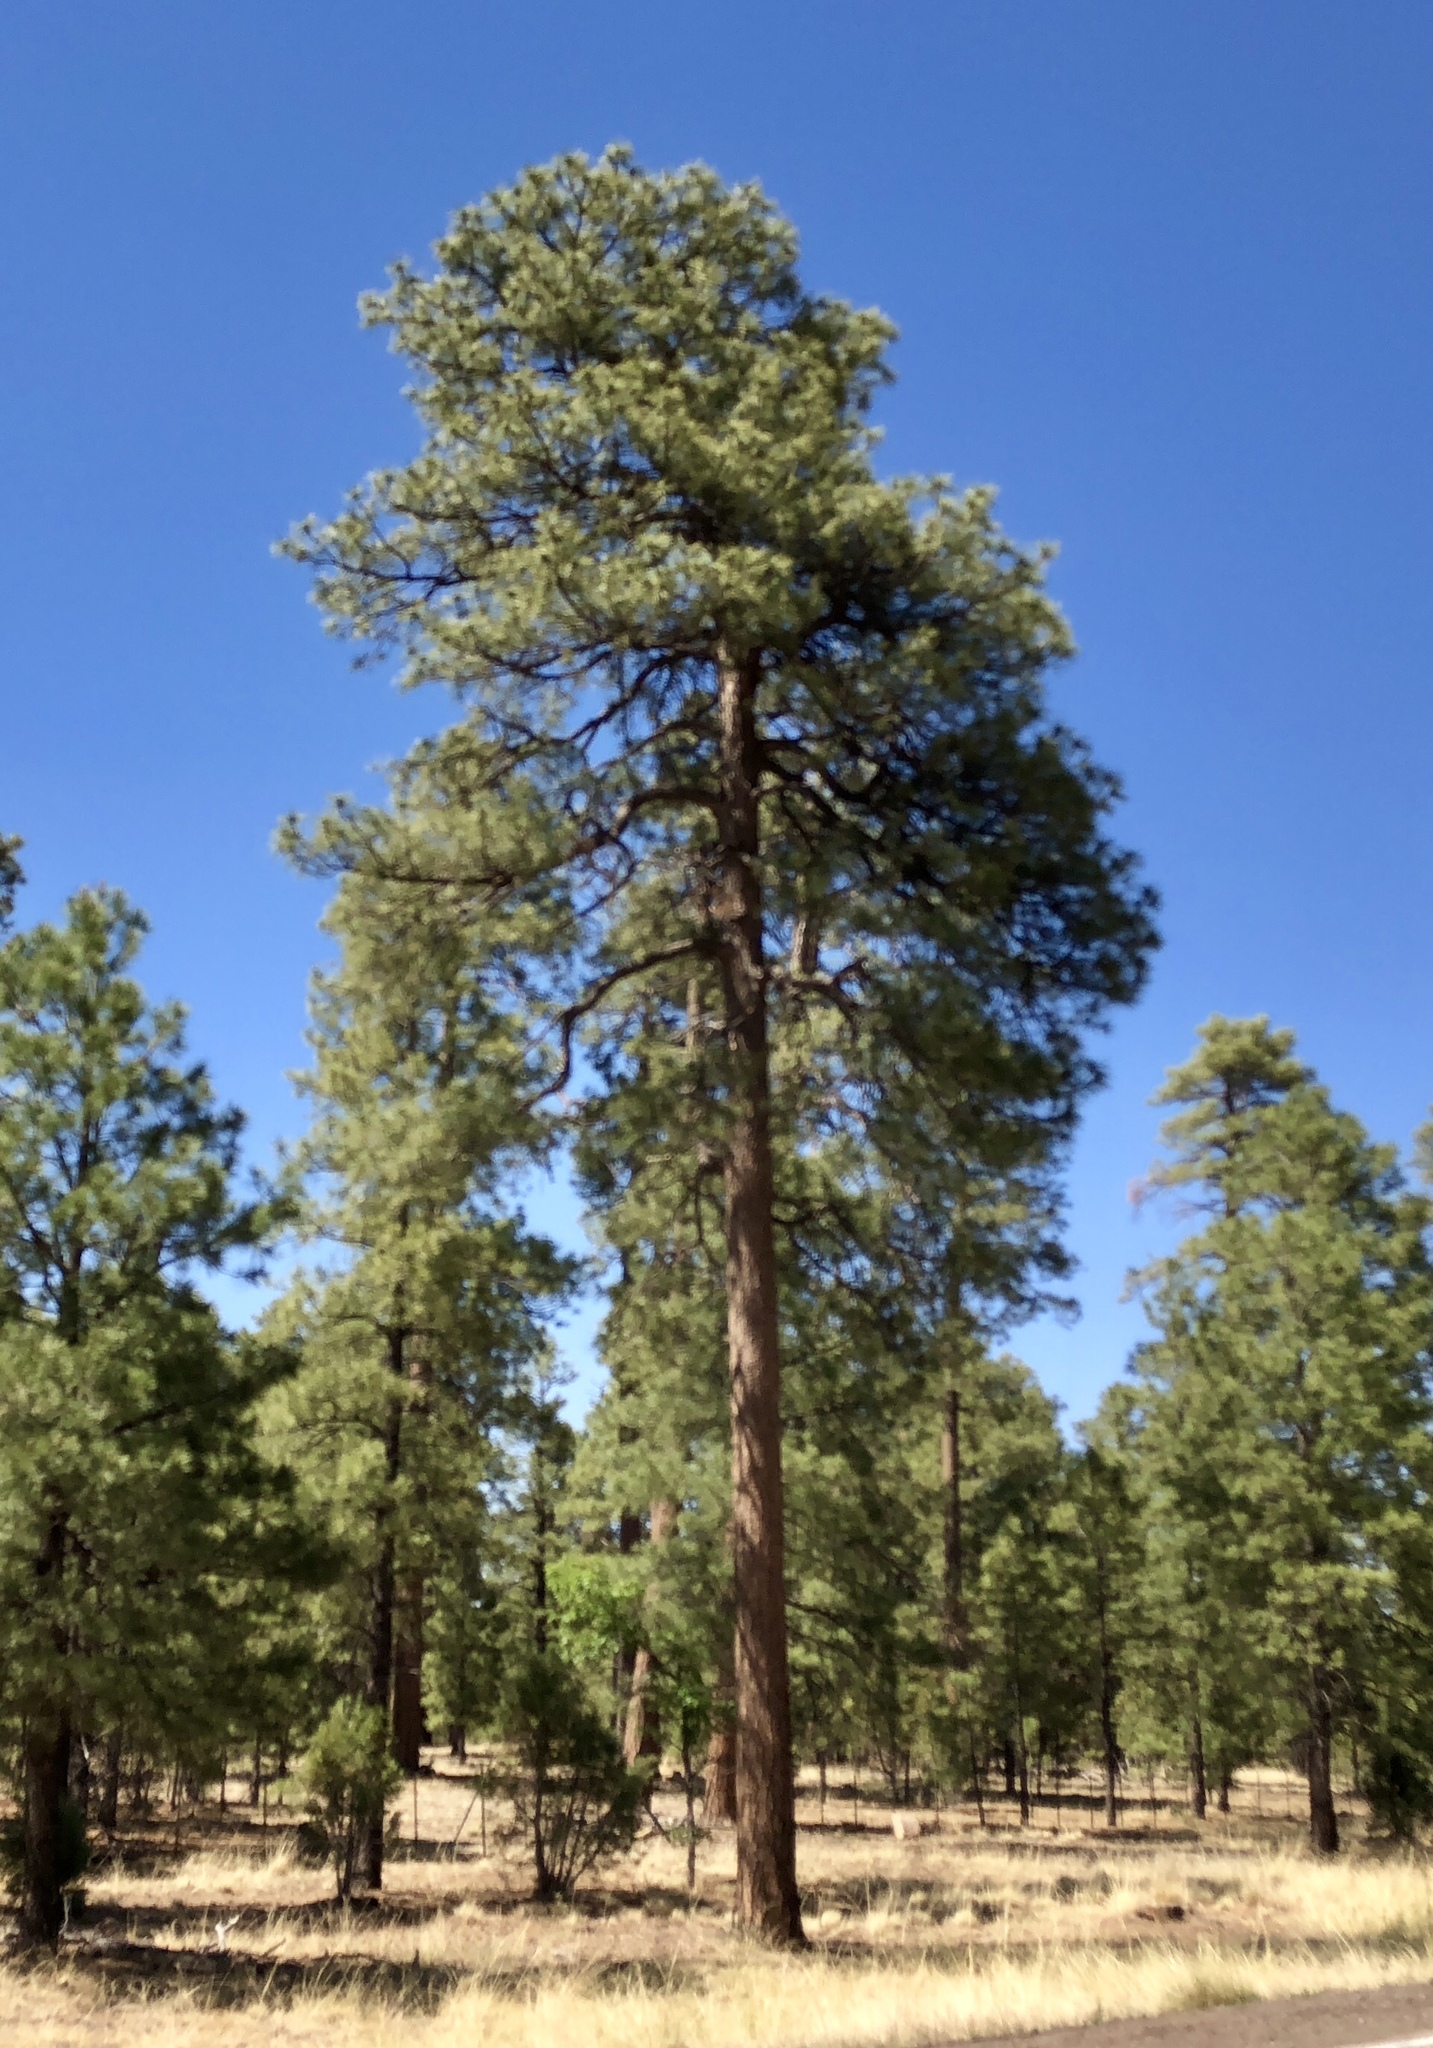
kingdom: Plantae
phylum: Tracheophyta
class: Pinopsida
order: Pinales
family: Pinaceae
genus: Pinus
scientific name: Pinus ponderosa
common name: Western yellow-pine
